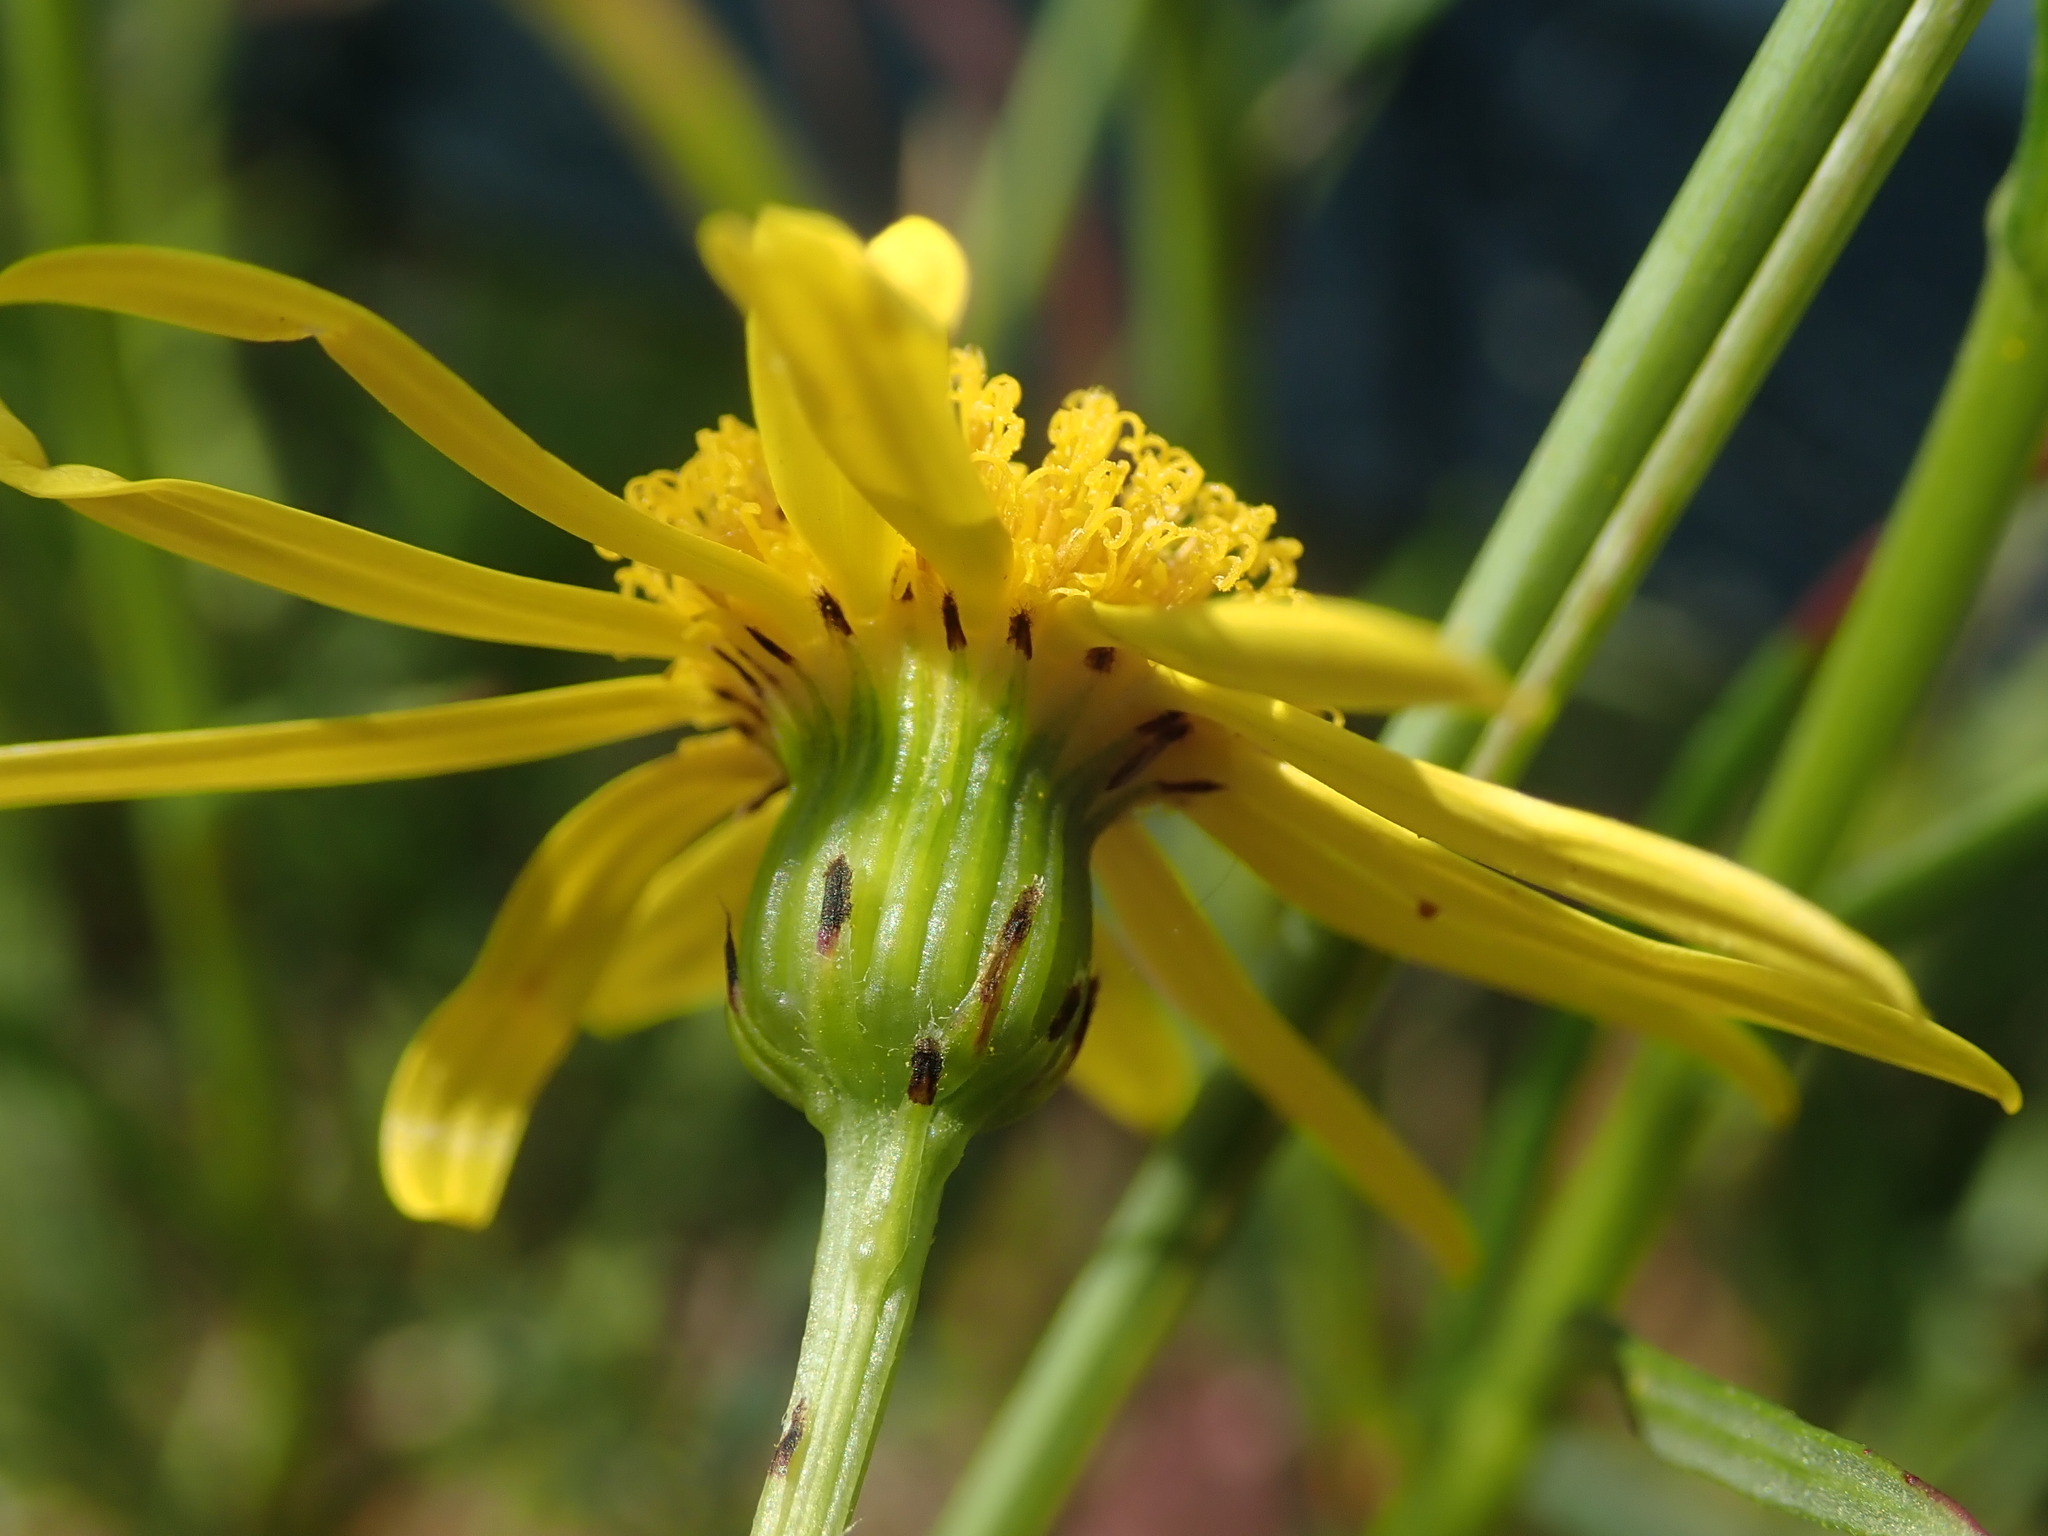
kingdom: Plantae
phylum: Tracheophyta
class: Magnoliopsida
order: Asterales
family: Asteraceae
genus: Senecio
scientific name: Senecio inaequidens
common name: Narrow-leaved ragwort
